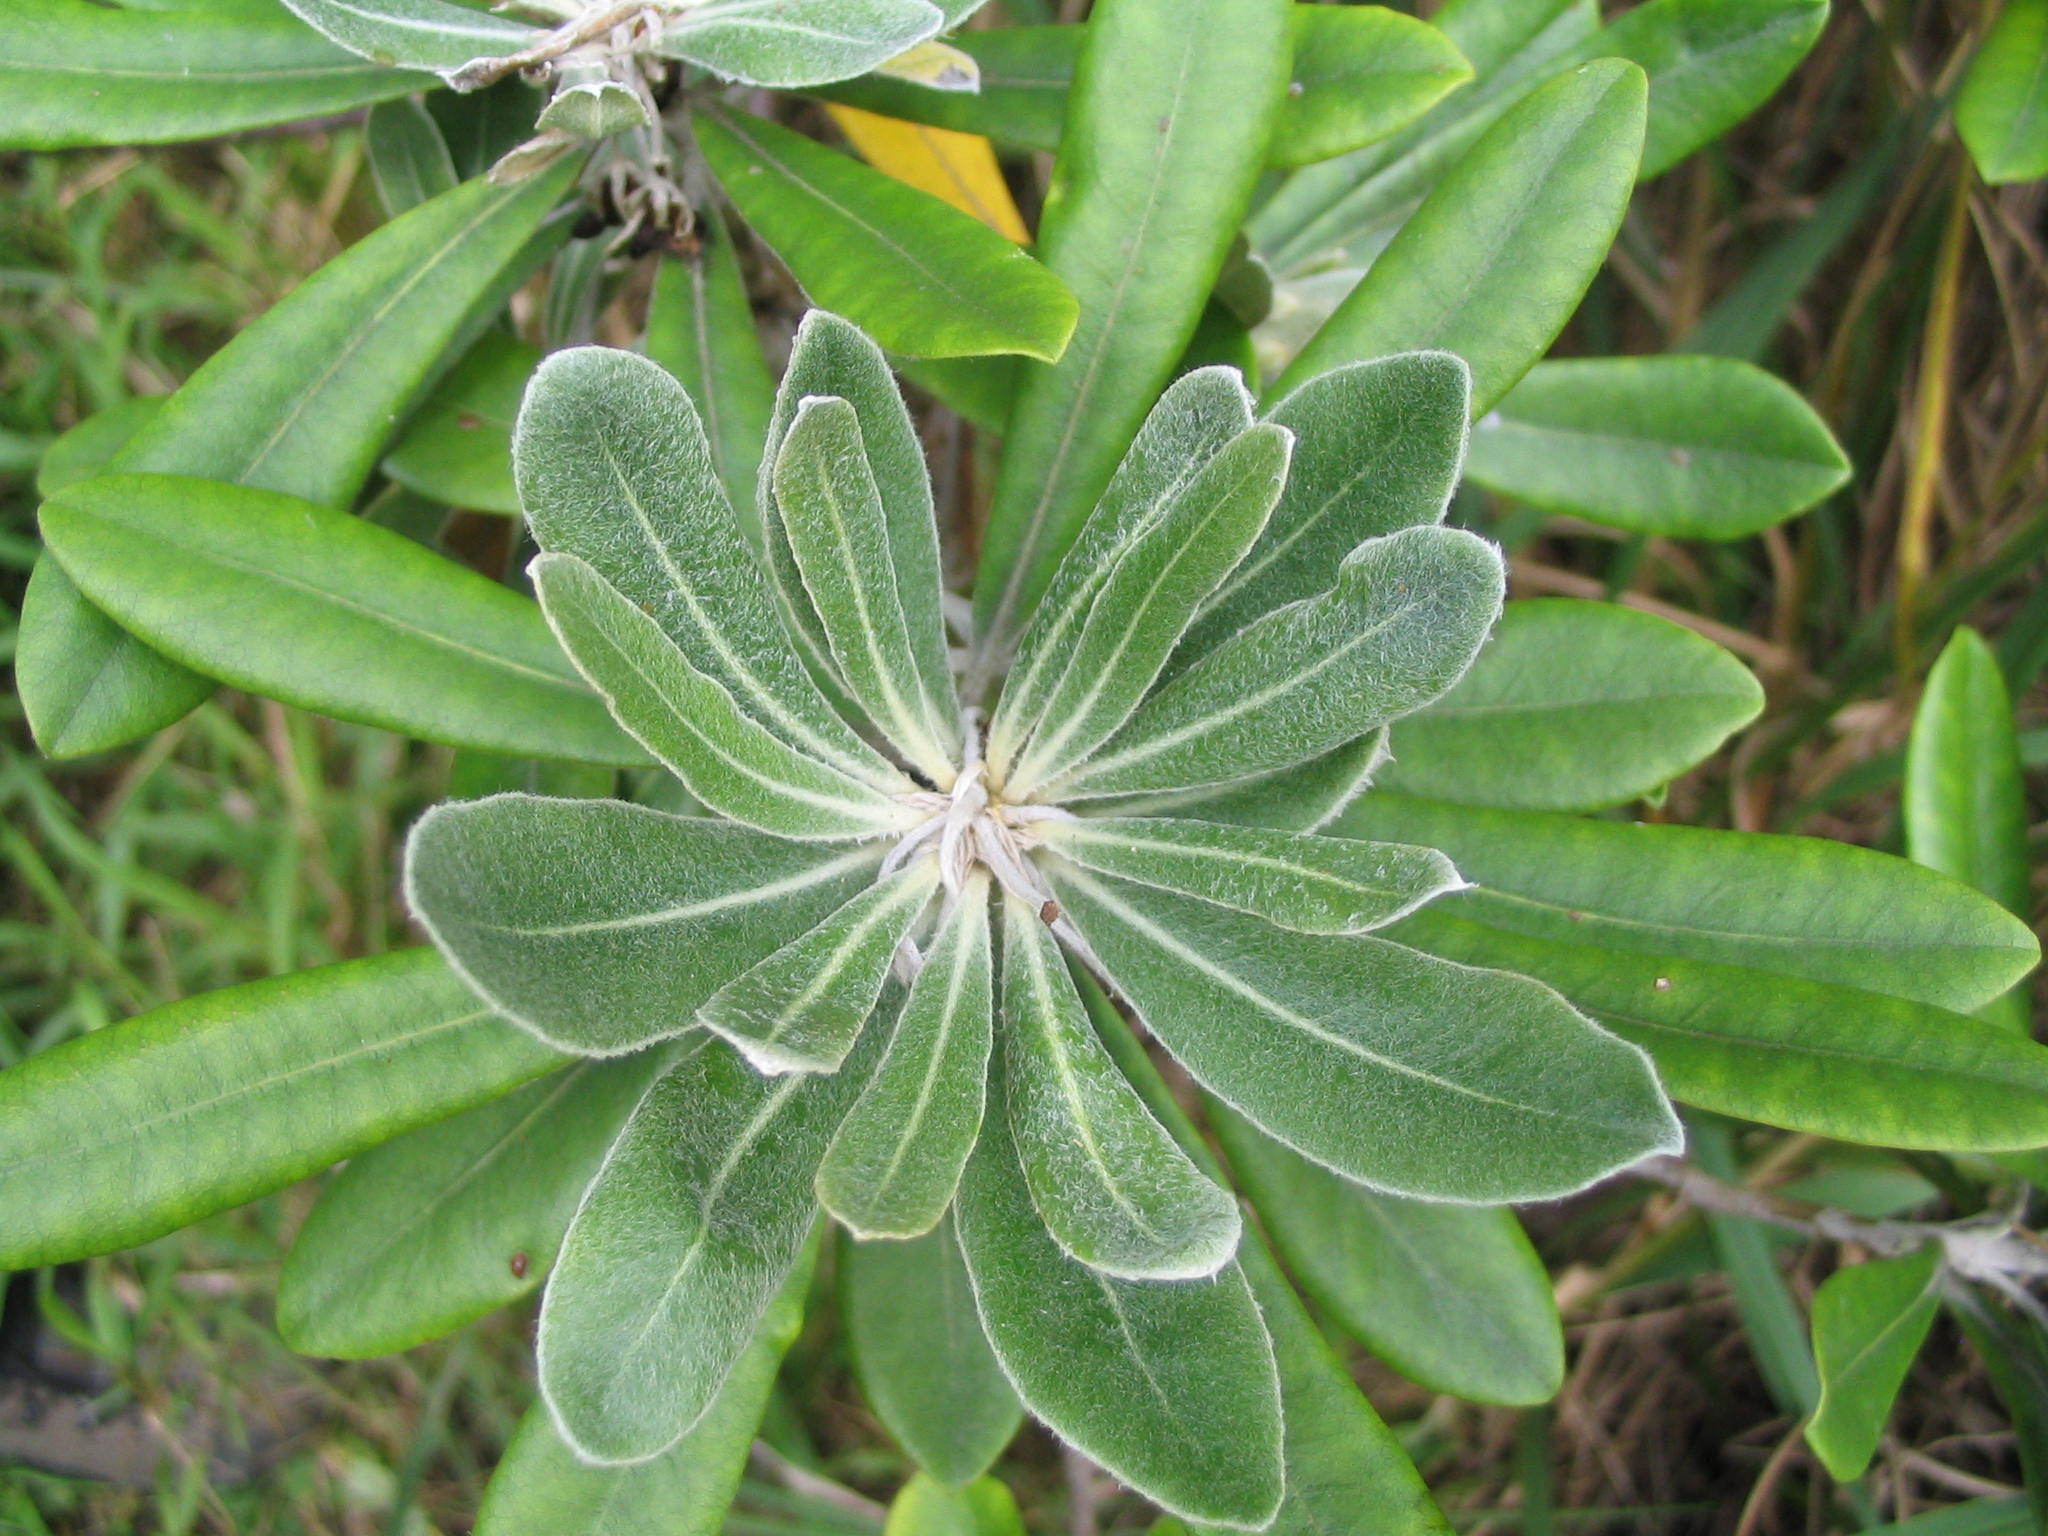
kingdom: Plantae
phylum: Tracheophyta
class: Magnoliopsida
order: Apiales
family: Pittosporaceae
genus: Pittosporum
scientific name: Pittosporum rangitahua
